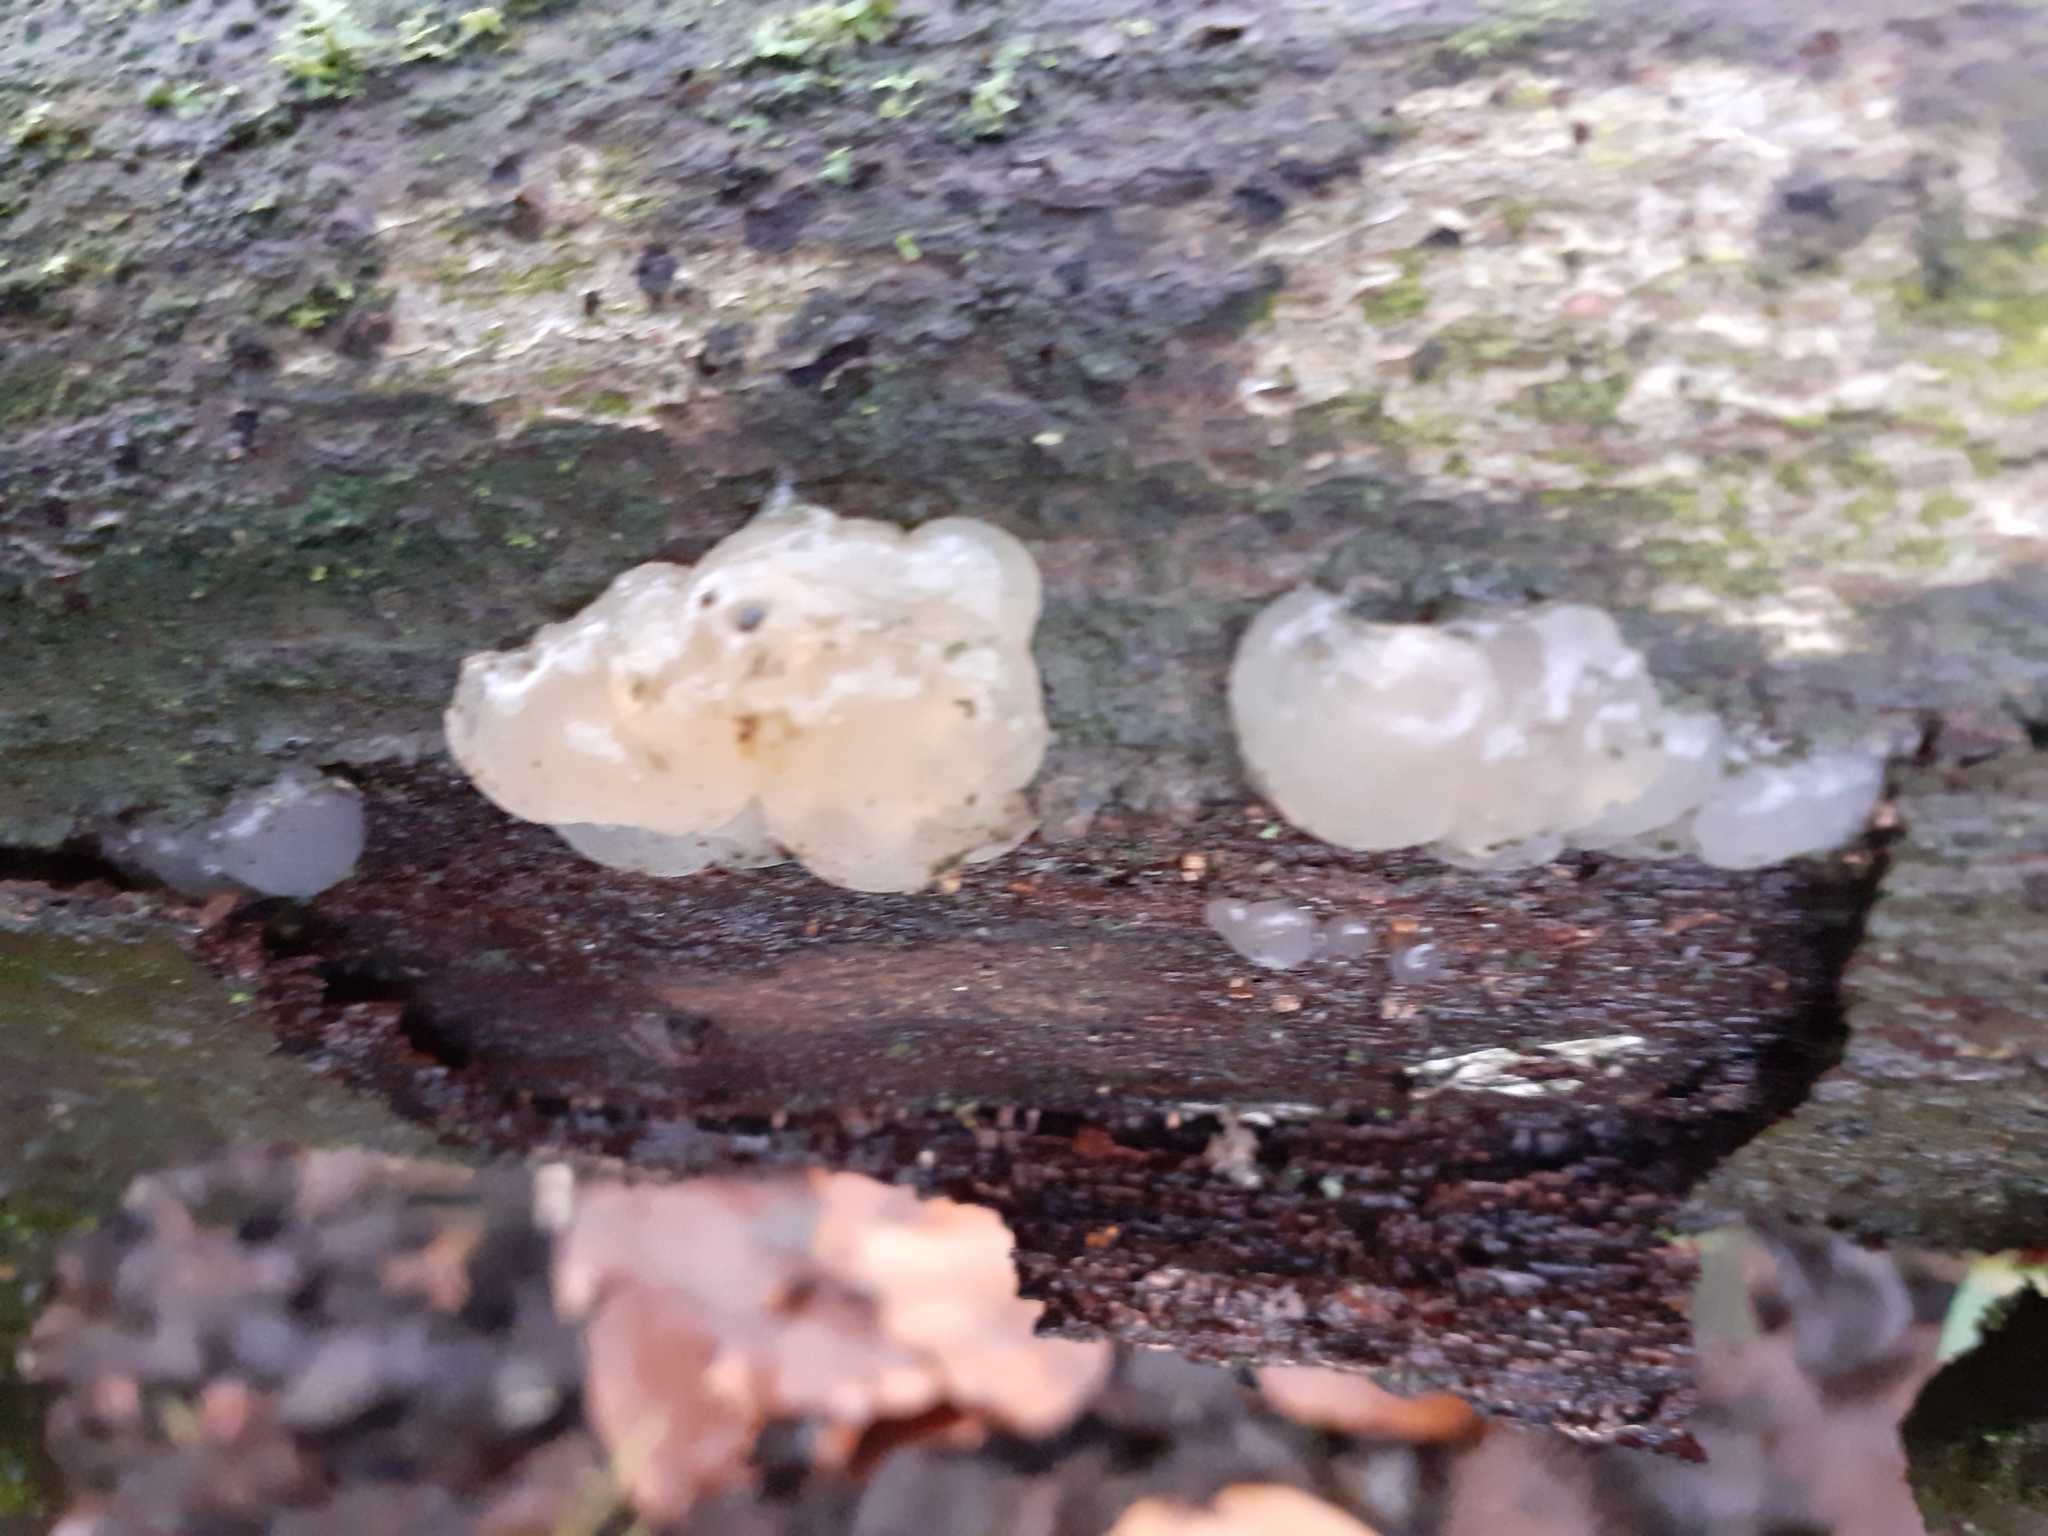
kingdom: Fungi
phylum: Basidiomycota
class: Agaricomycetes
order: Auriculariales
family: Hyaloriaceae
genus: Myxarium
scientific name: Myxarium nucleatum
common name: Crystal brain fungus
